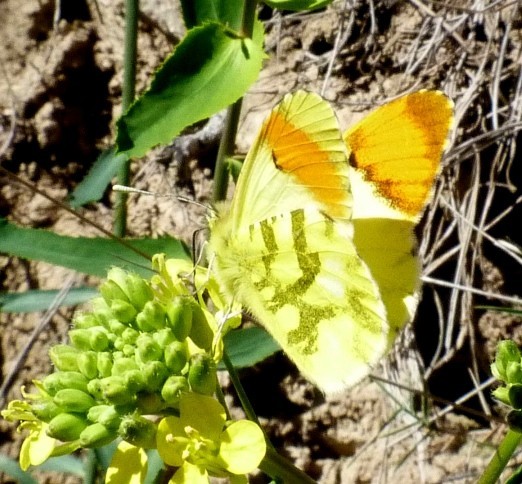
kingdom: Animalia
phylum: Arthropoda
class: Insecta
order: Lepidoptera
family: Pieridae
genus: Anthocharis
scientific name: Anthocharis euphenoides
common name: Provence orange-tip
